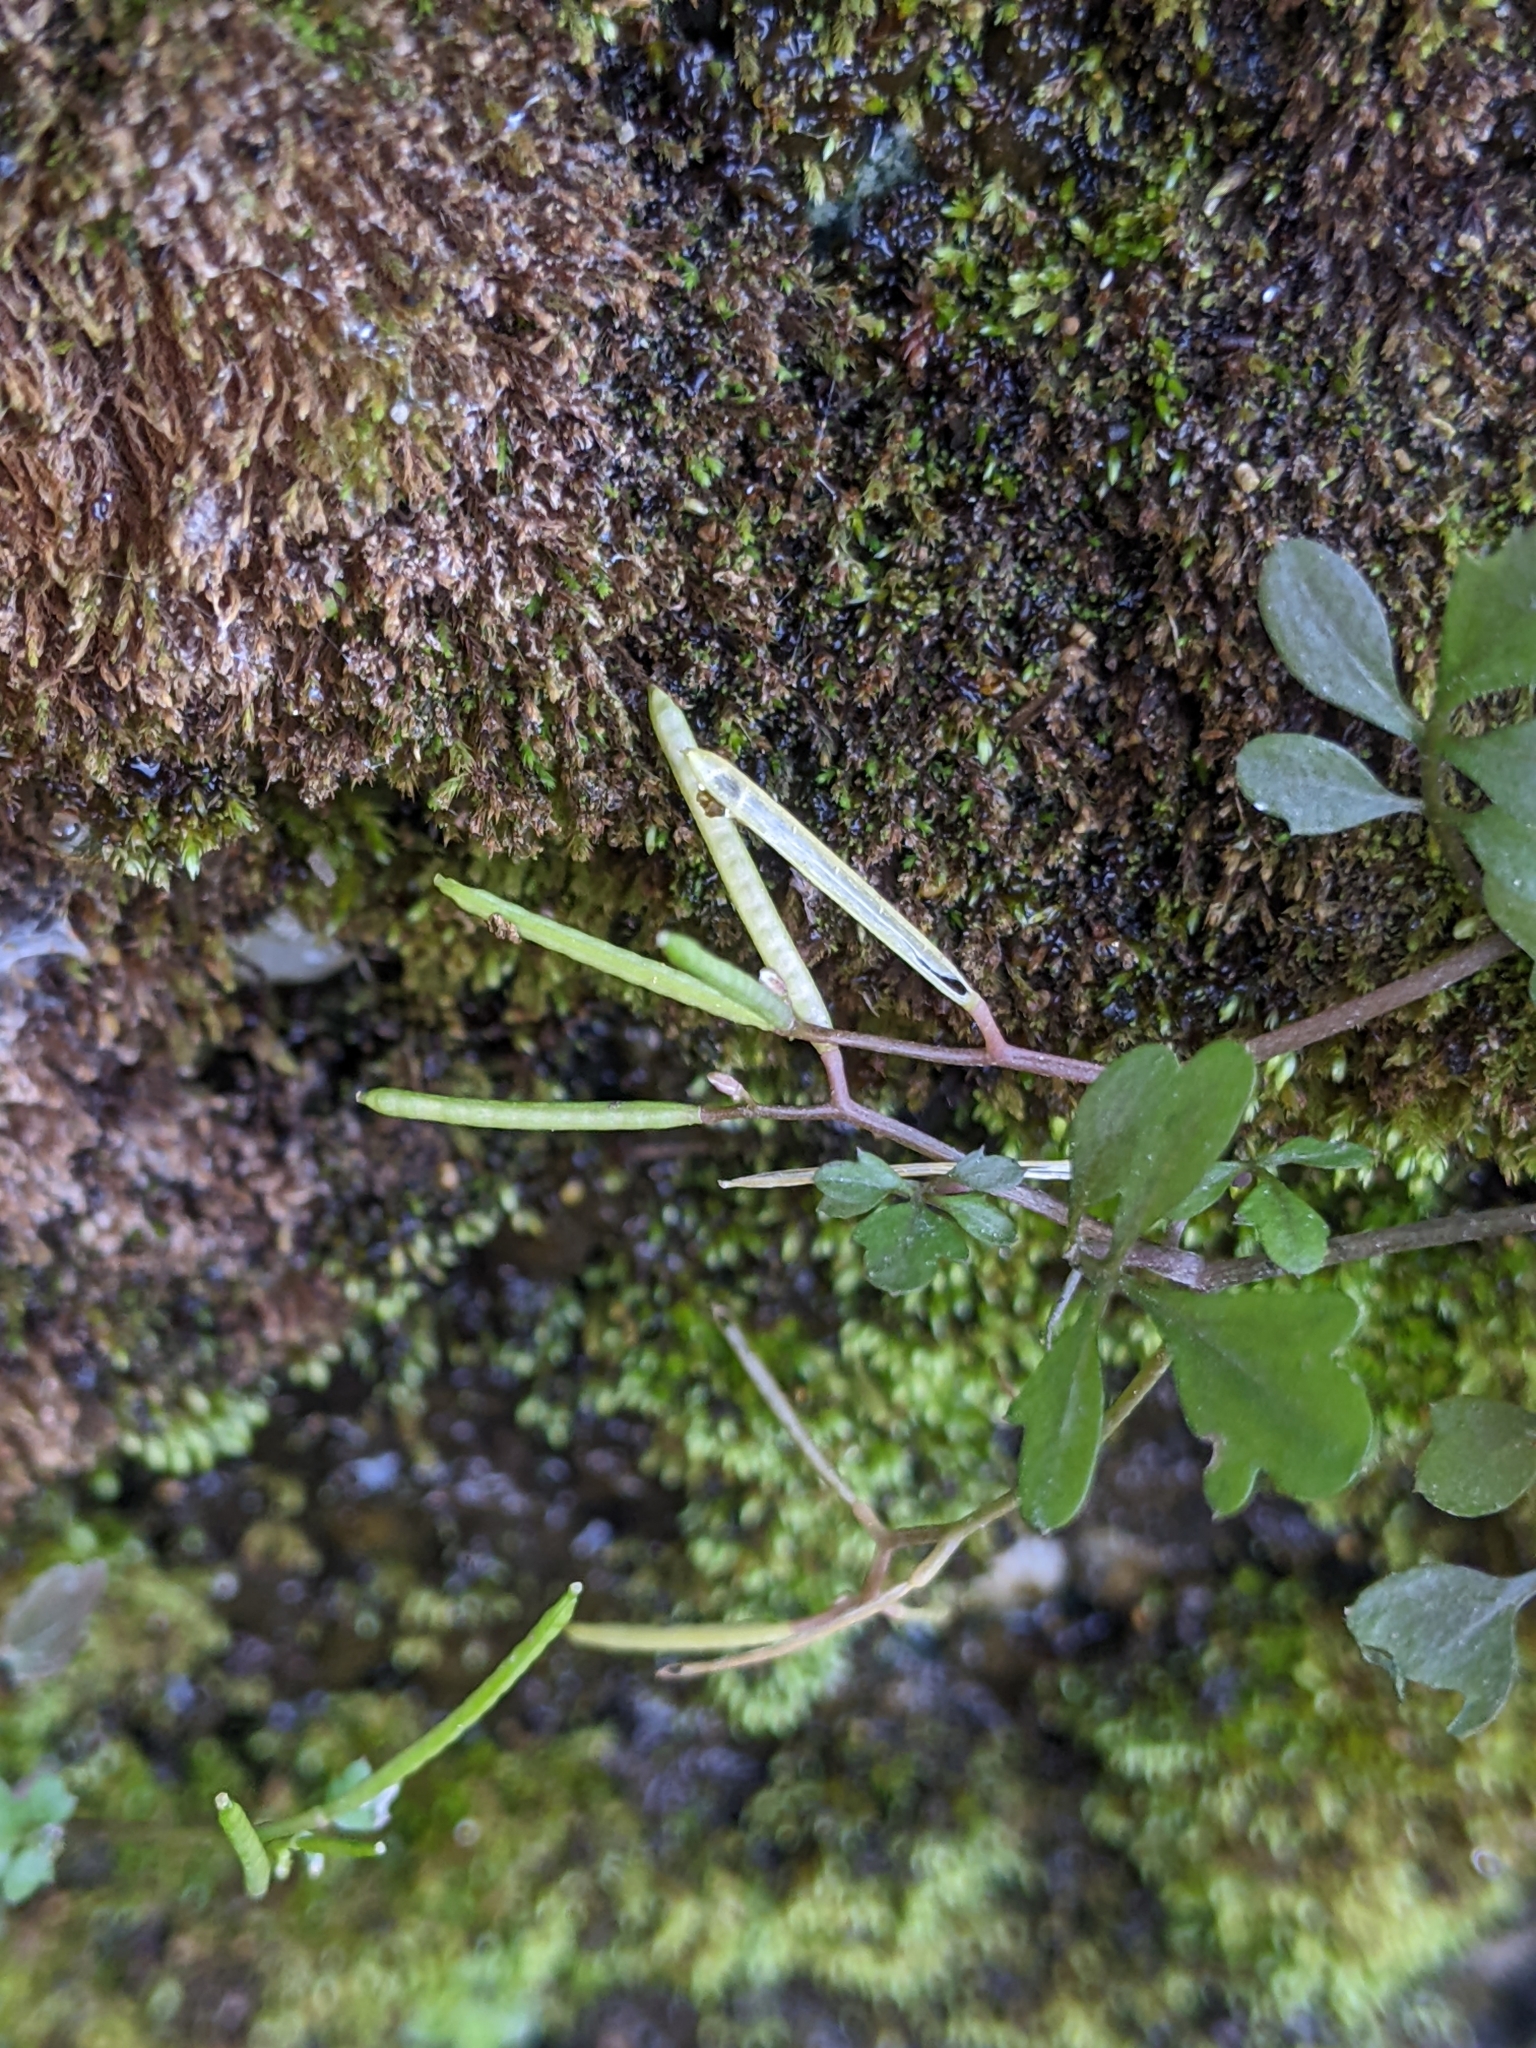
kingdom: Plantae
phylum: Tracheophyta
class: Magnoliopsida
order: Brassicales
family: Brassicaceae
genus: Cardamine
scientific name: Cardamine flexuosa
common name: Woodland bittercress
